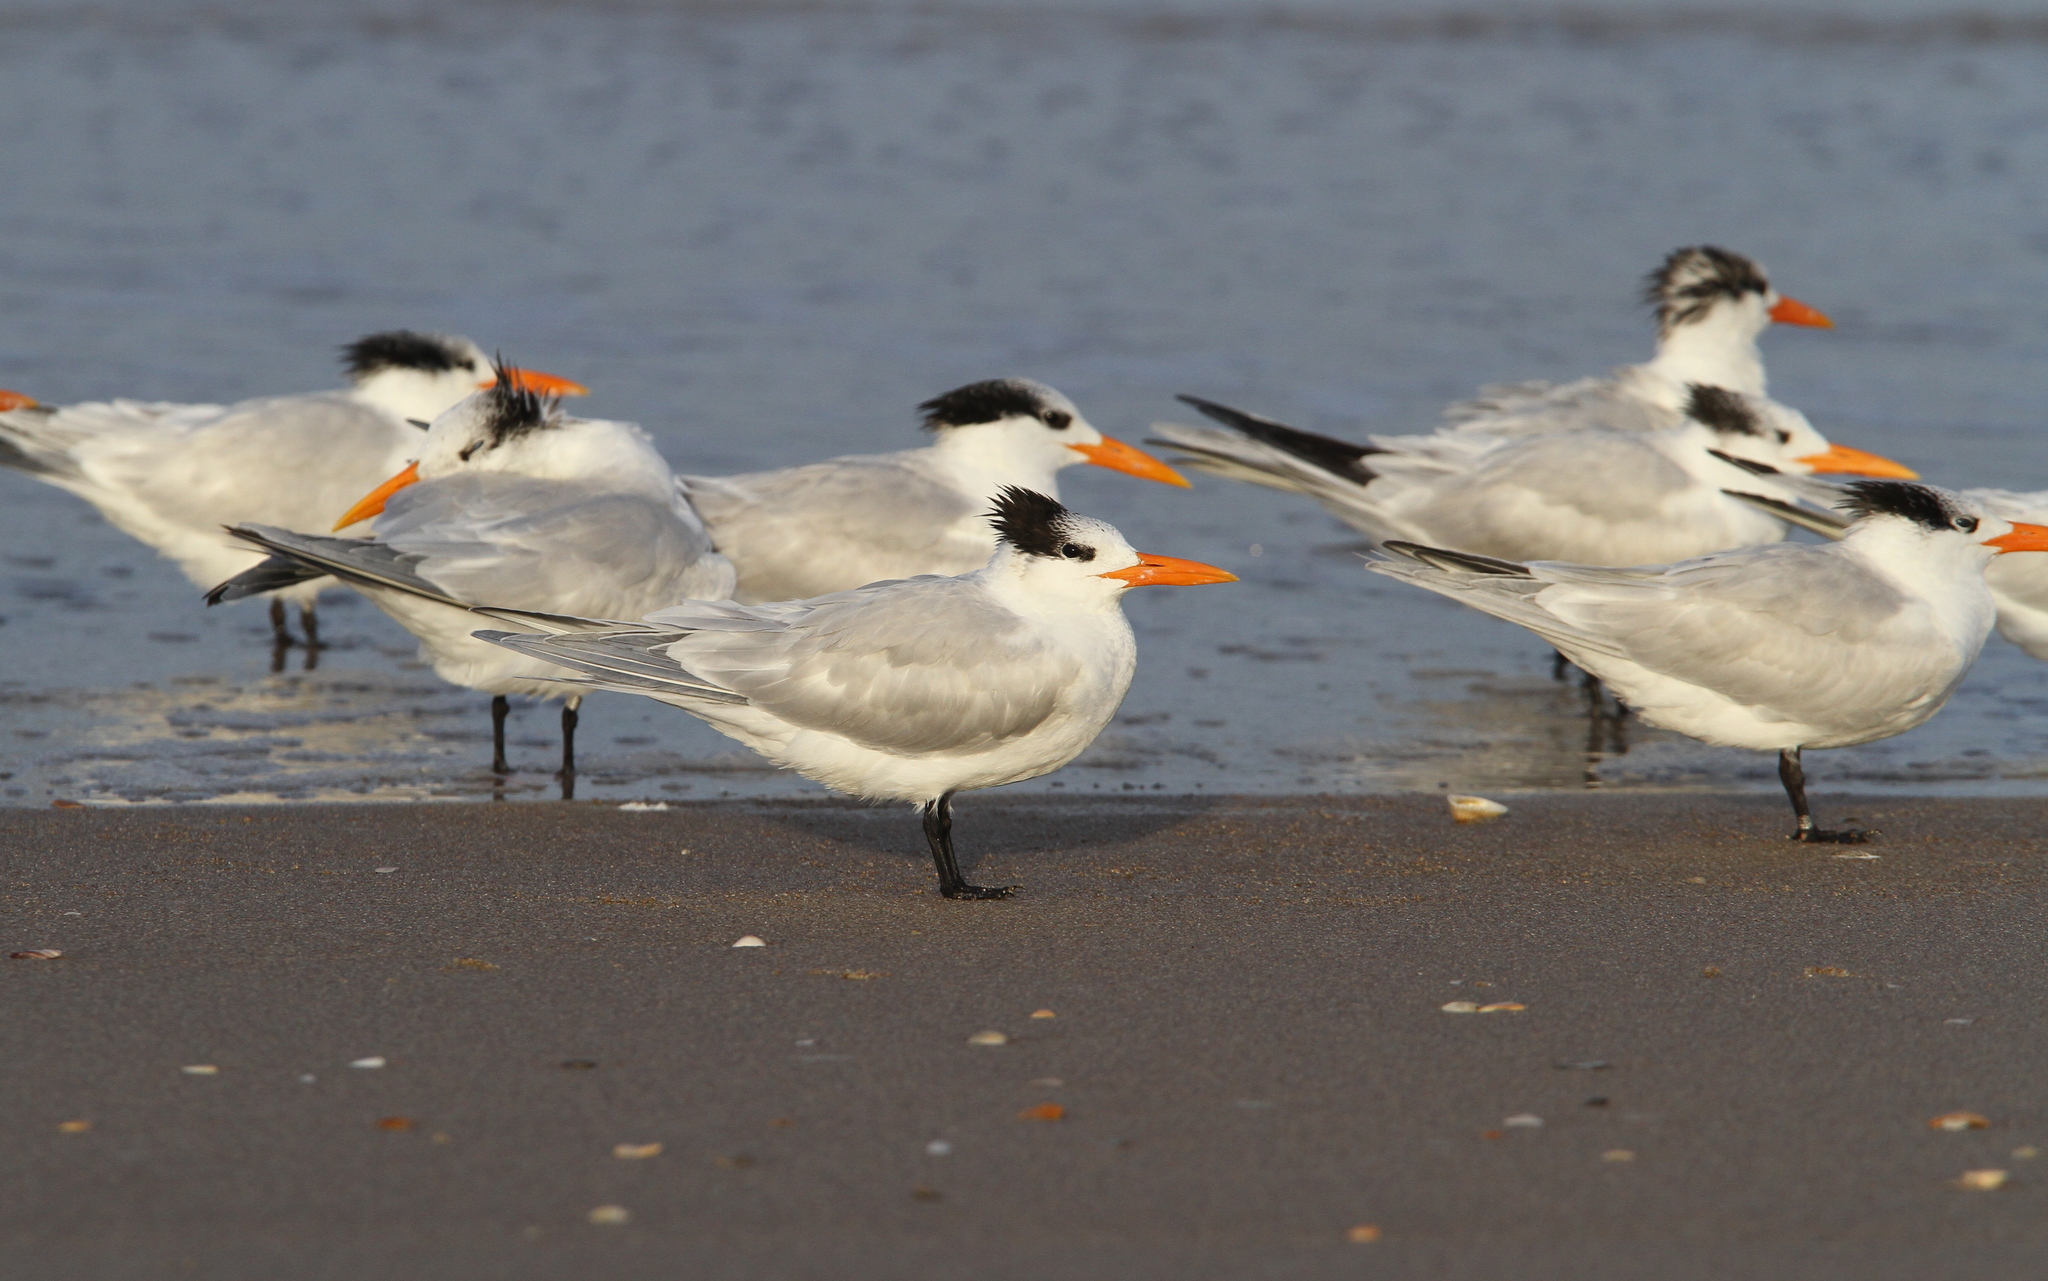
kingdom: Animalia
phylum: Chordata
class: Aves
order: Charadriiformes
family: Laridae
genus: Thalasseus
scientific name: Thalasseus maximus
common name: Royal tern
